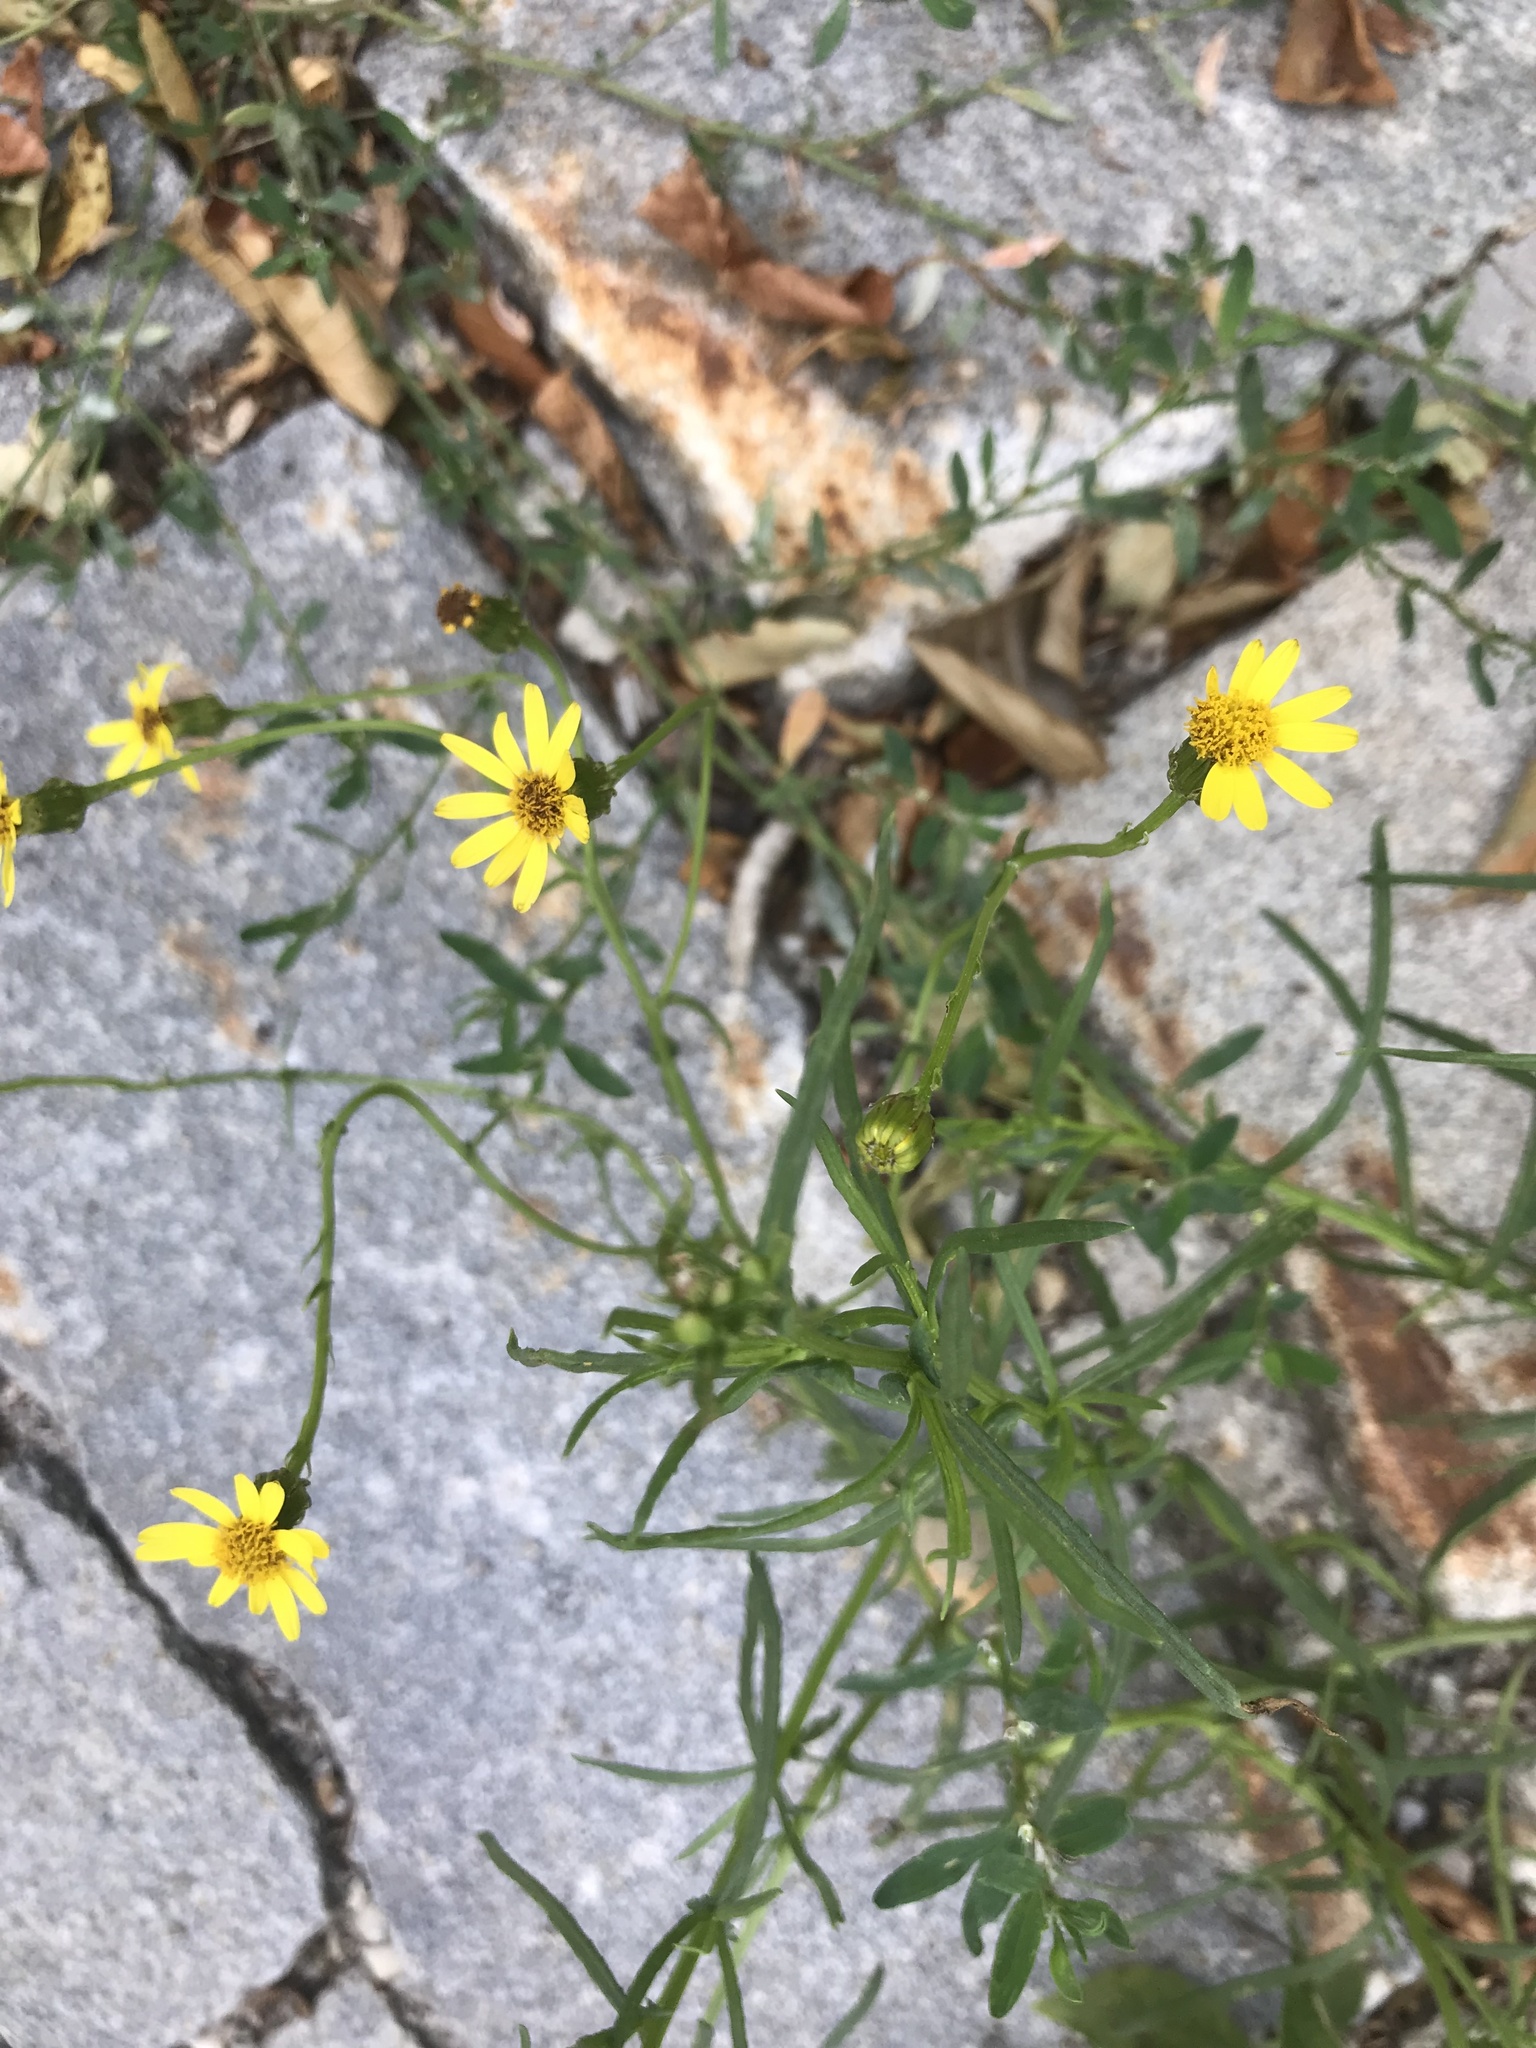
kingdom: Plantae
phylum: Tracheophyta
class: Magnoliopsida
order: Asterales
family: Asteraceae
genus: Senecio
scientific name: Senecio inaequidens
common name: Narrow-leaved ragwort
